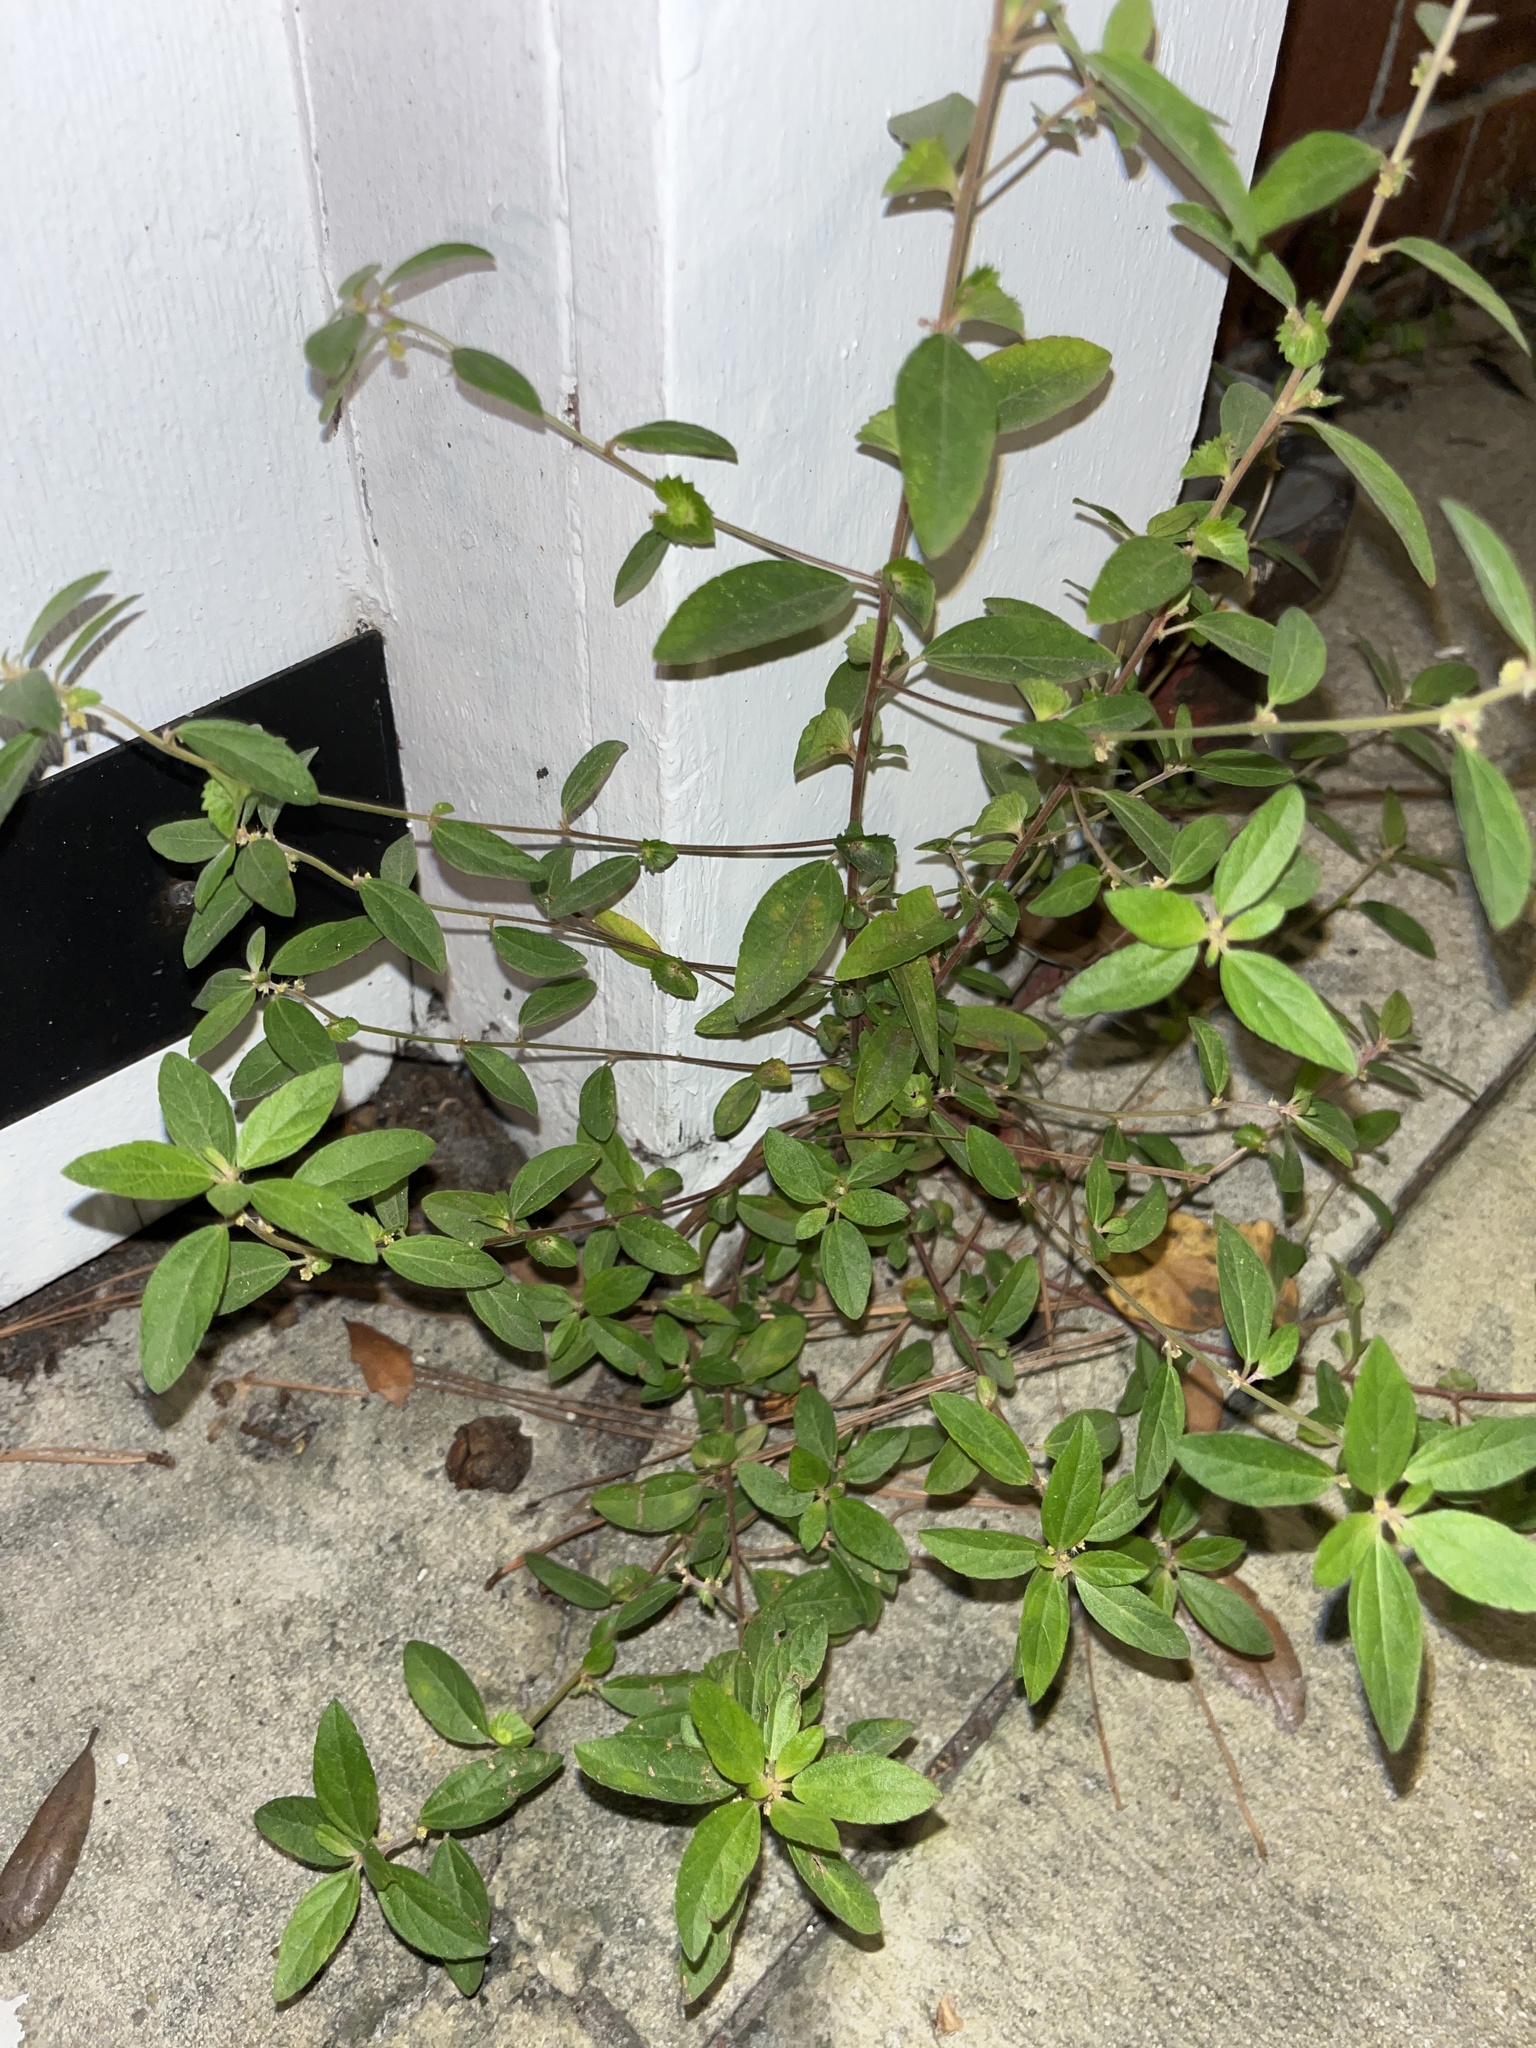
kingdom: Plantae
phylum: Tracheophyta
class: Magnoliopsida
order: Malpighiales
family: Euphorbiaceae
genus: Acalypha
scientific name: Acalypha gracilens
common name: Slender three-seeded mercury
